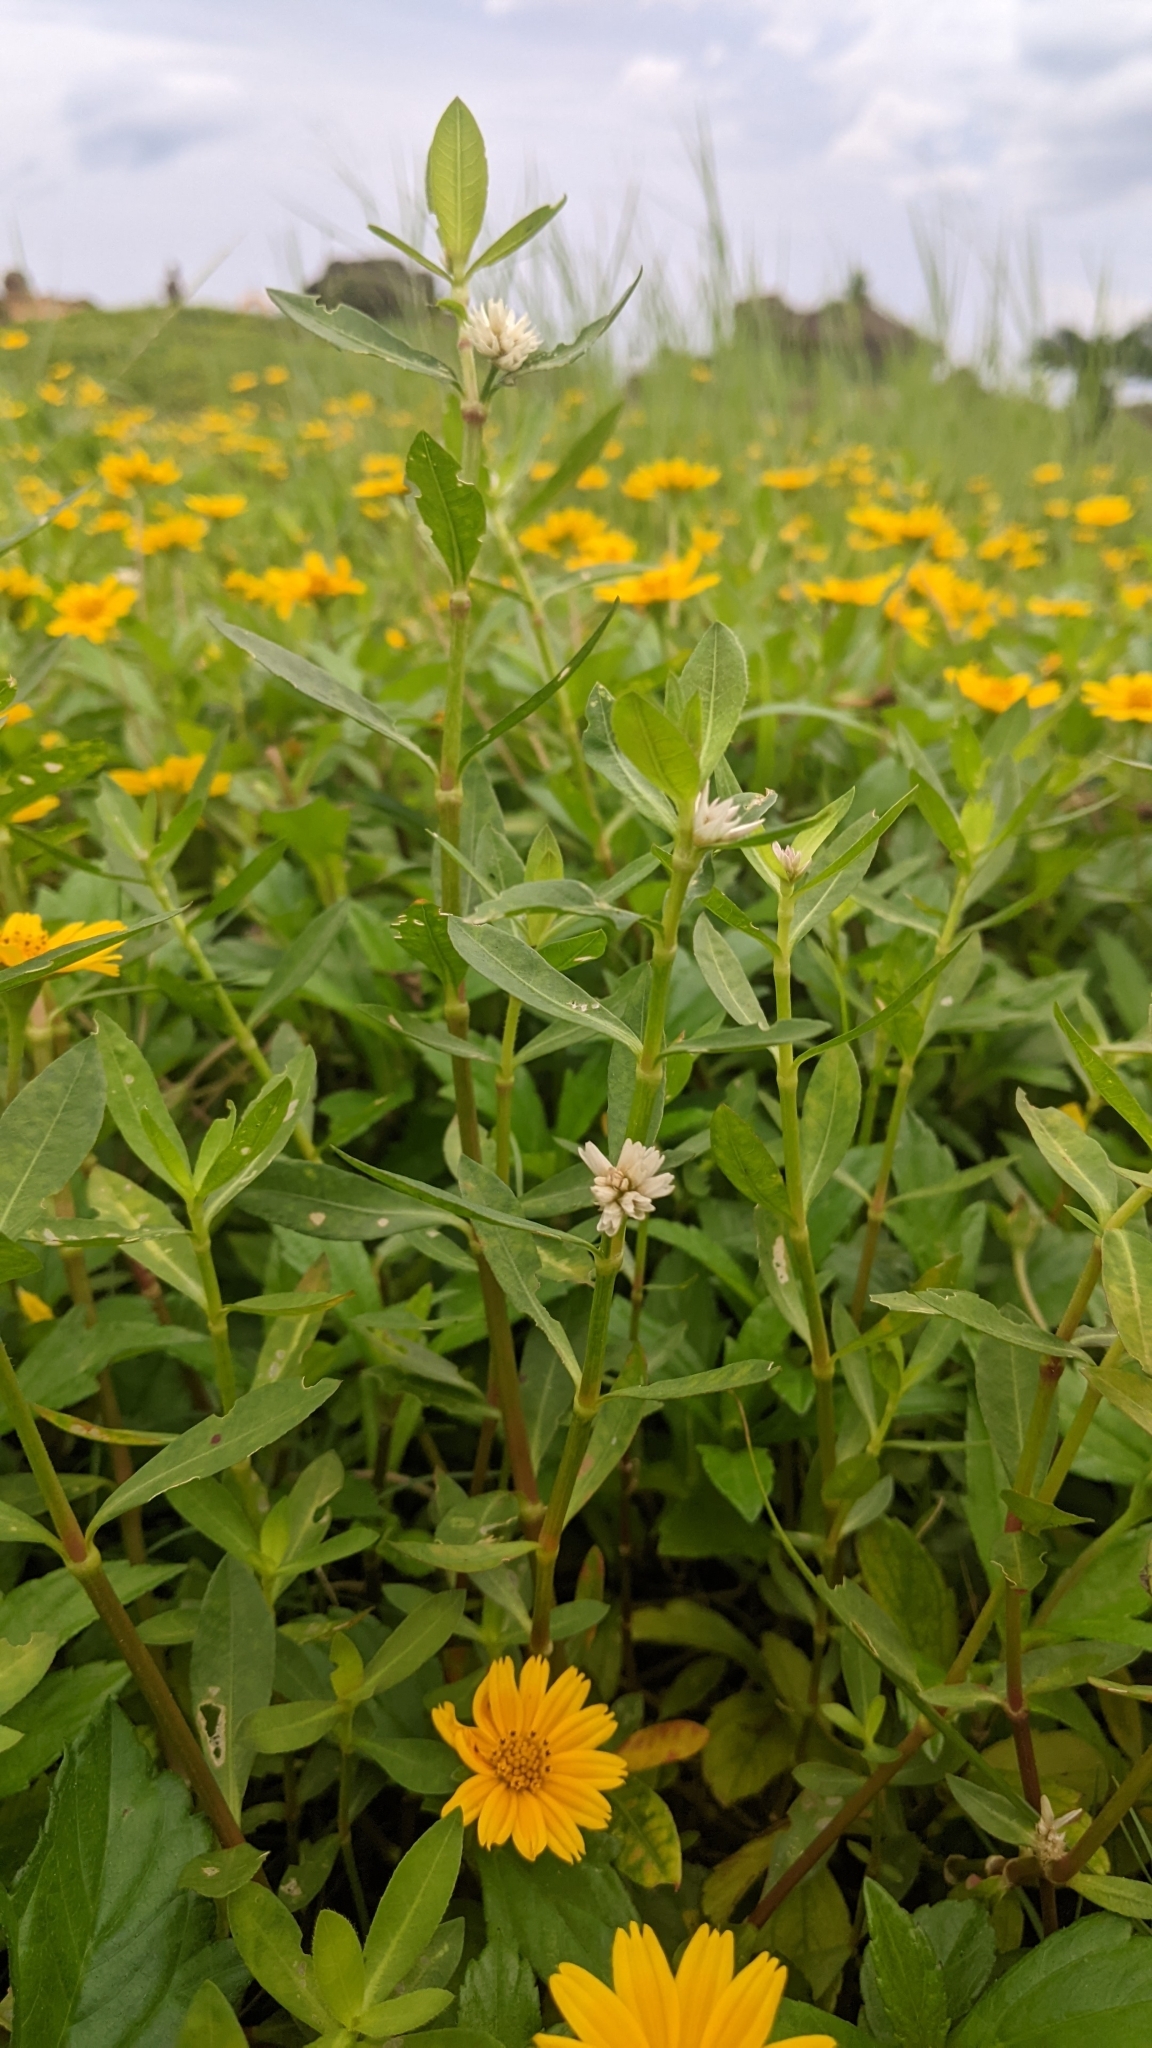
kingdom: Plantae
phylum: Tracheophyta
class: Magnoliopsida
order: Caryophyllales
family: Amaranthaceae
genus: Alternanthera
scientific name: Alternanthera philoxeroides
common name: Alligatorweed
